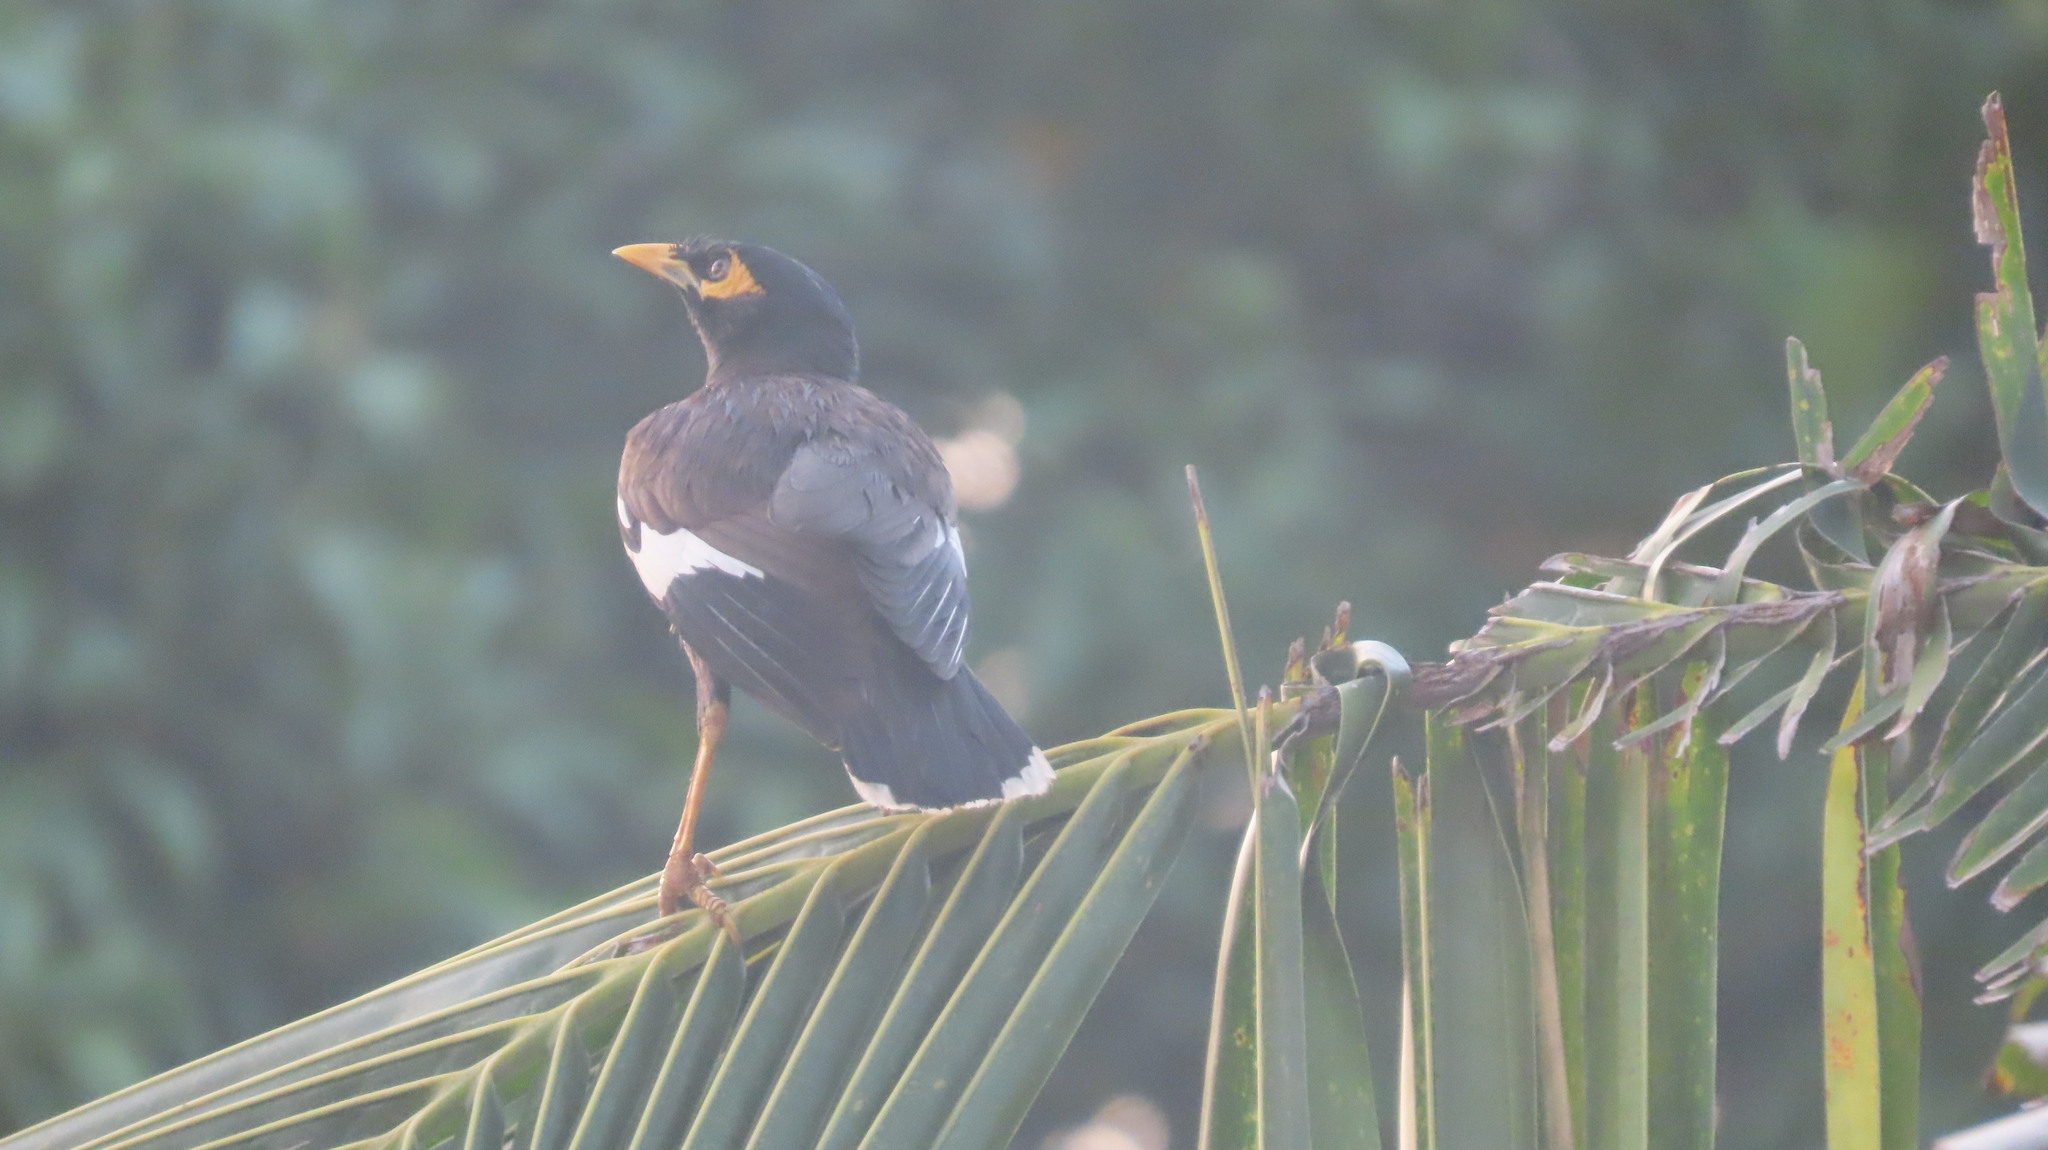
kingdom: Animalia
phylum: Chordata
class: Aves
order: Passeriformes
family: Sturnidae
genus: Acridotheres
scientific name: Acridotheres tristis
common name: Common myna
